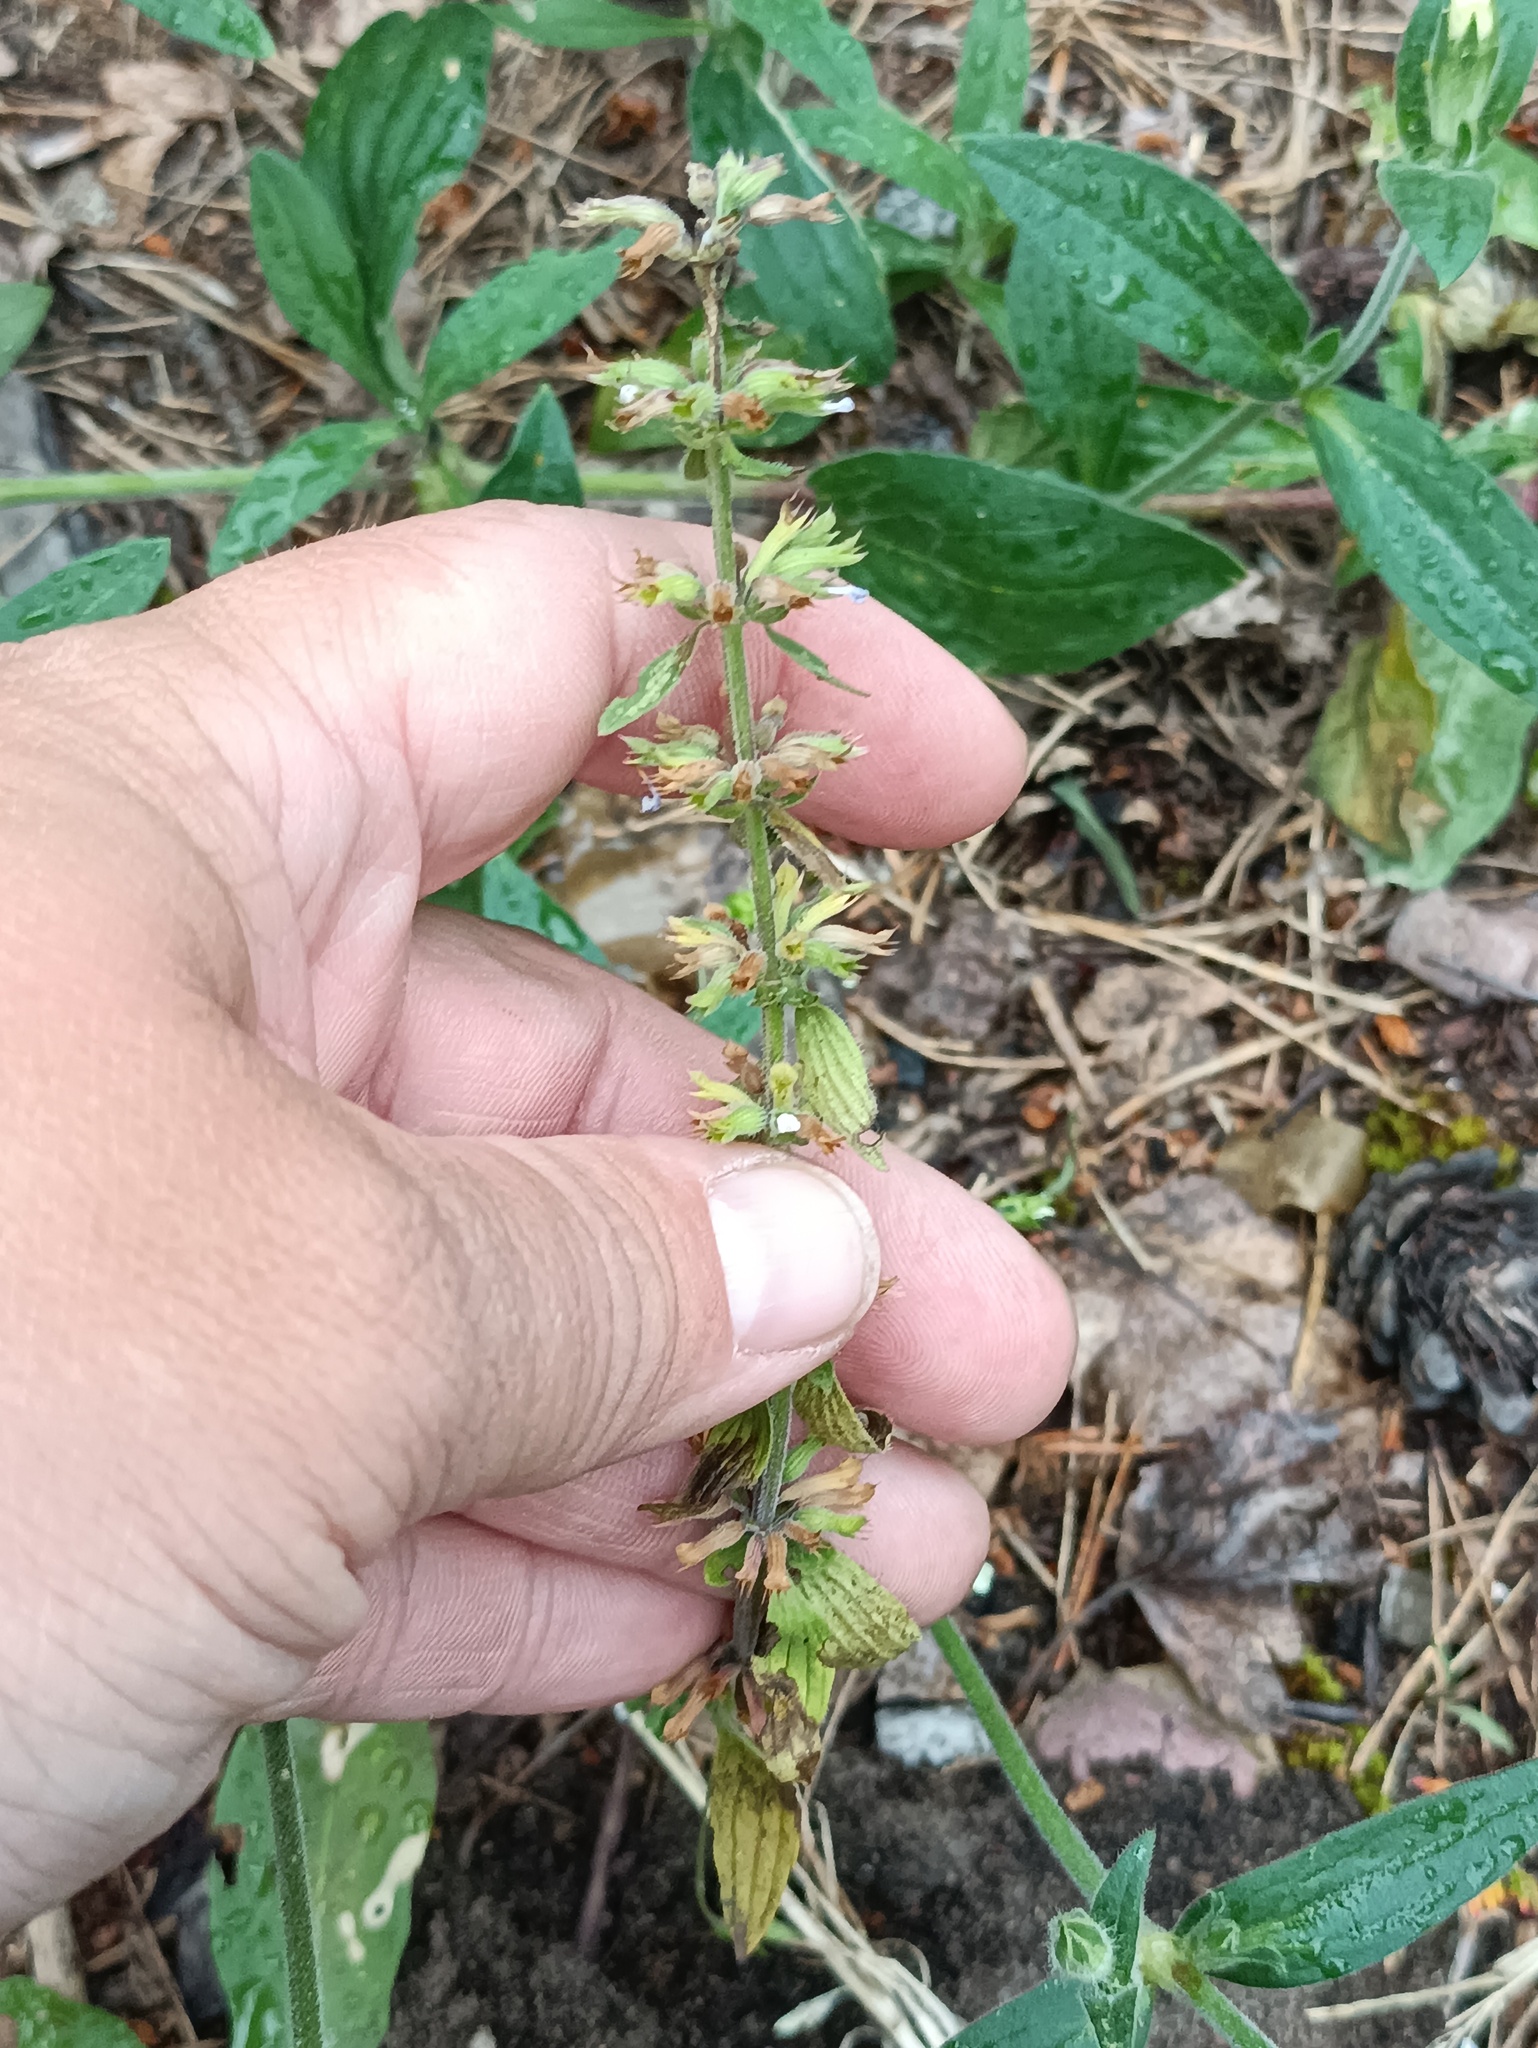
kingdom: Plantae
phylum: Tracheophyta
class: Magnoliopsida
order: Lamiales
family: Lamiaceae
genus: Dracocephalum
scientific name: Dracocephalum thymiflorum
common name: Thymeleaf dragonhead
